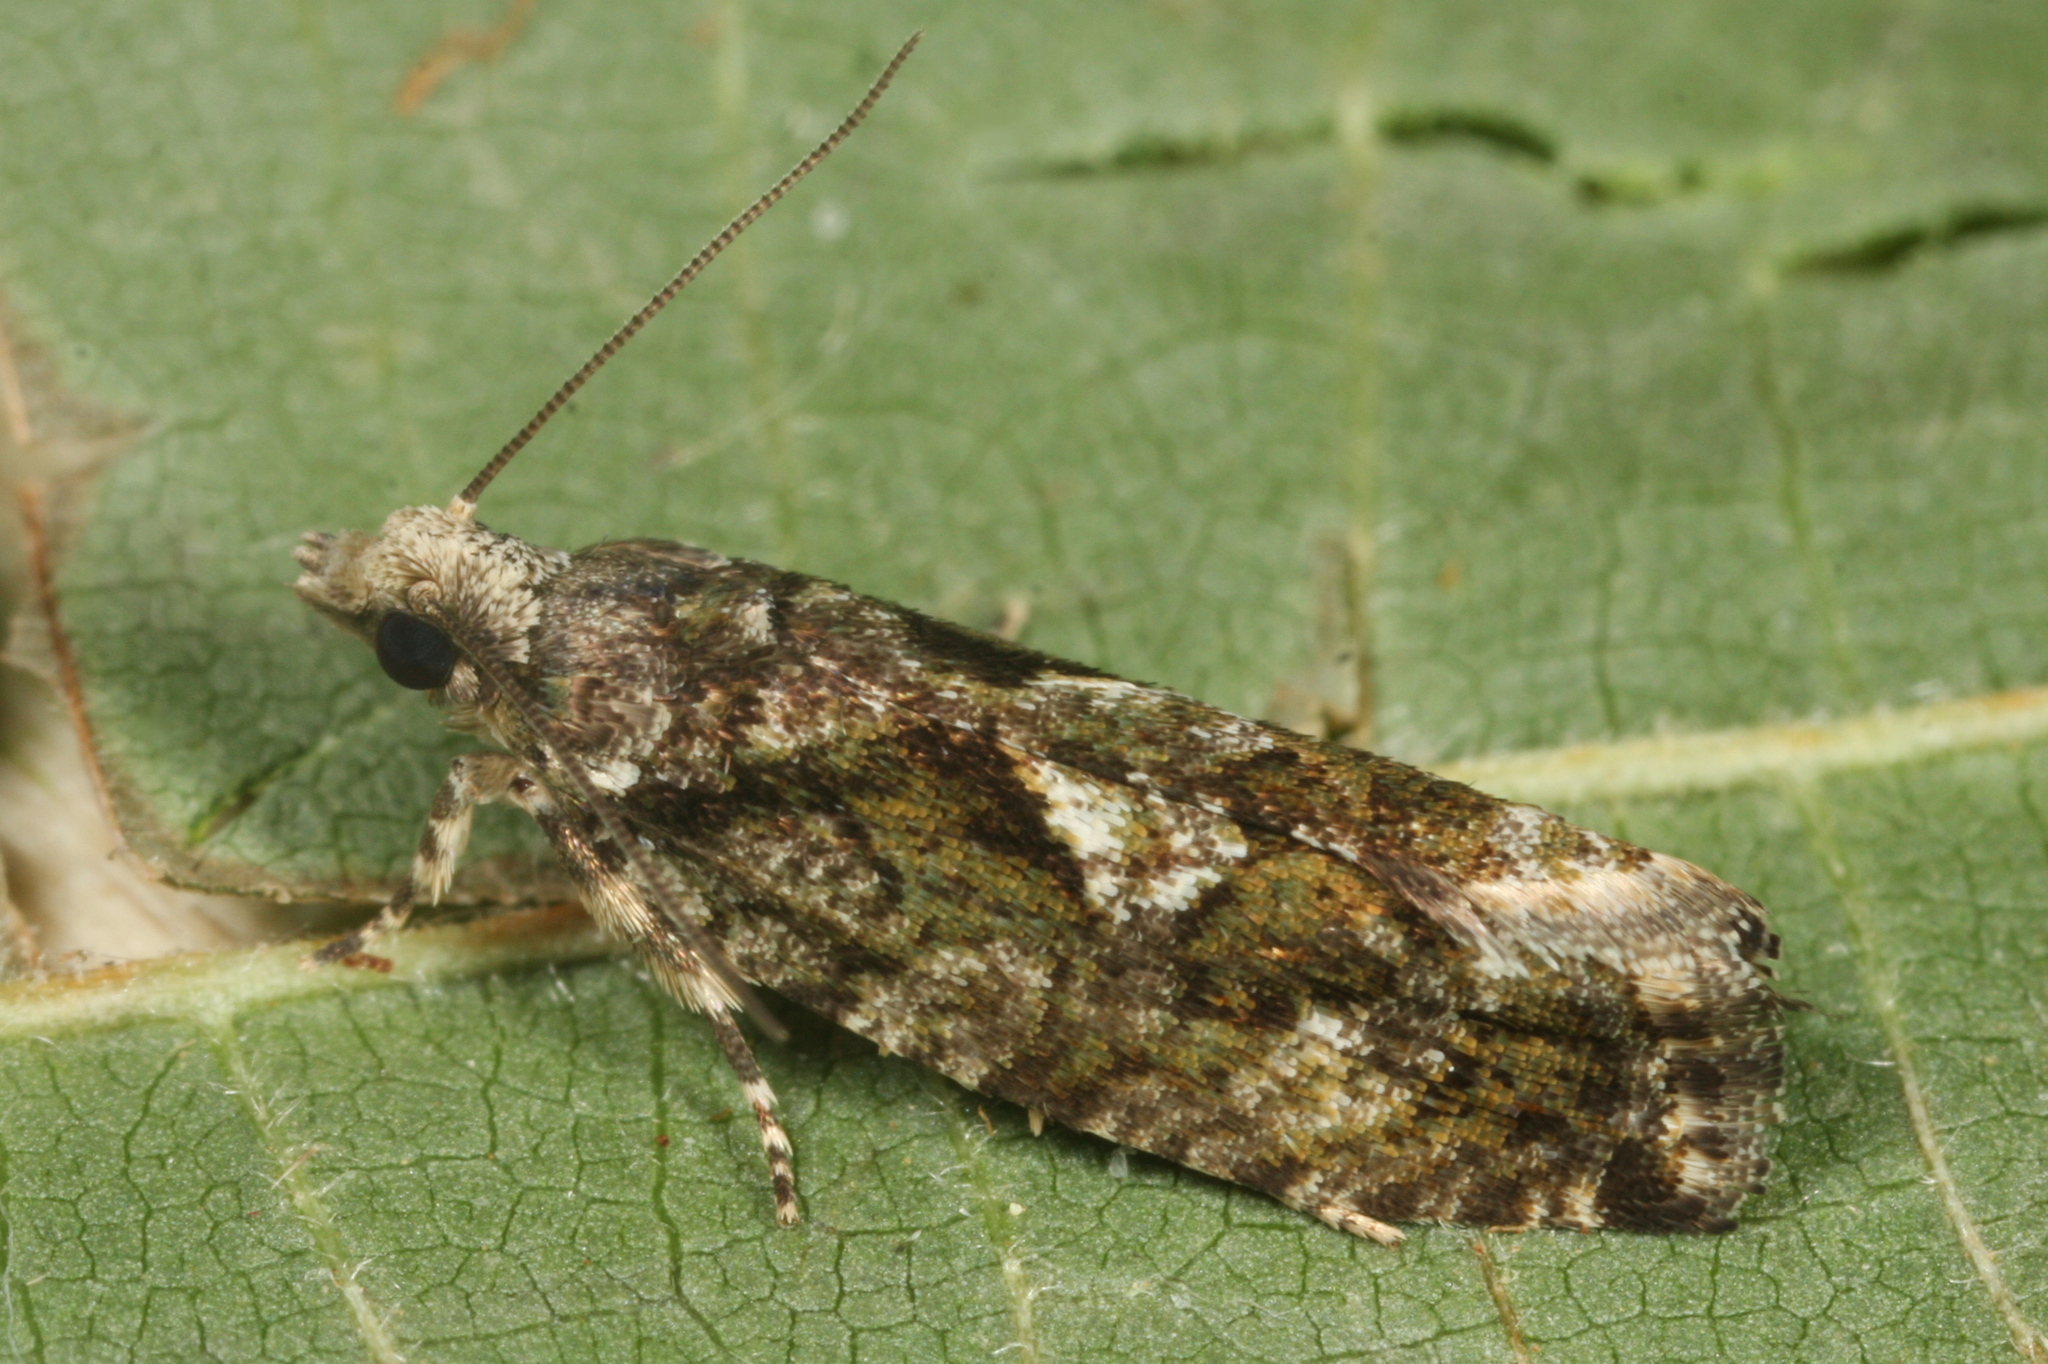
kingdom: Animalia
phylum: Arthropoda
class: Insecta
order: Lepidoptera
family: Tortricidae
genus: Zeiraphera
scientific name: Zeiraphera isertana
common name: Cock's-head bell
